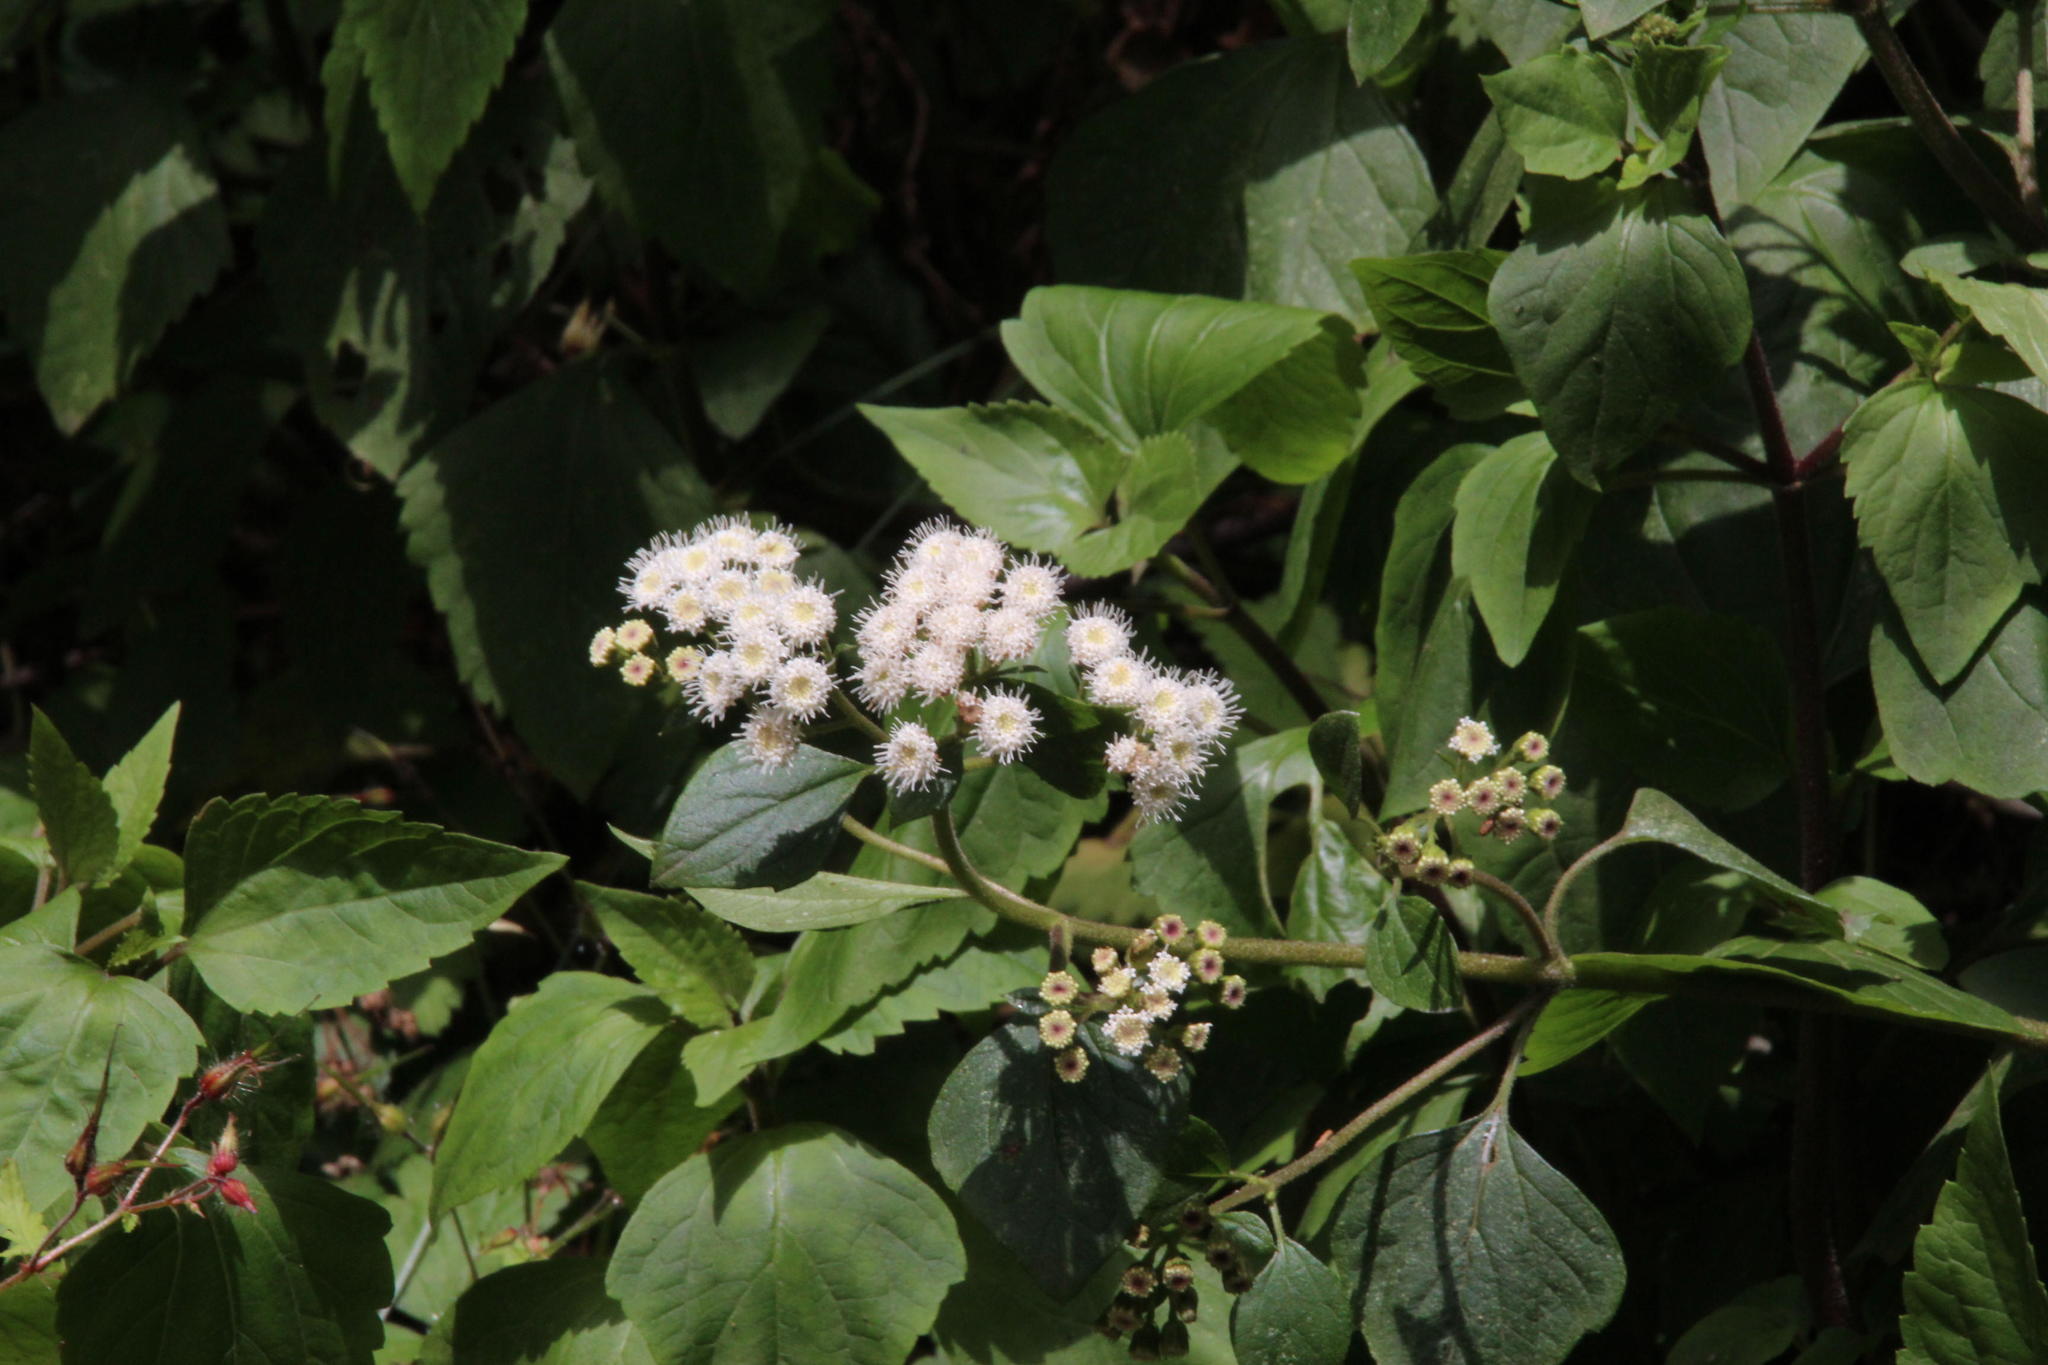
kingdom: Plantae
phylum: Tracheophyta
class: Magnoliopsida
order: Asterales
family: Asteraceae
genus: Ageratina
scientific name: Ageratina adenophora
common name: Sticky snakeroot
